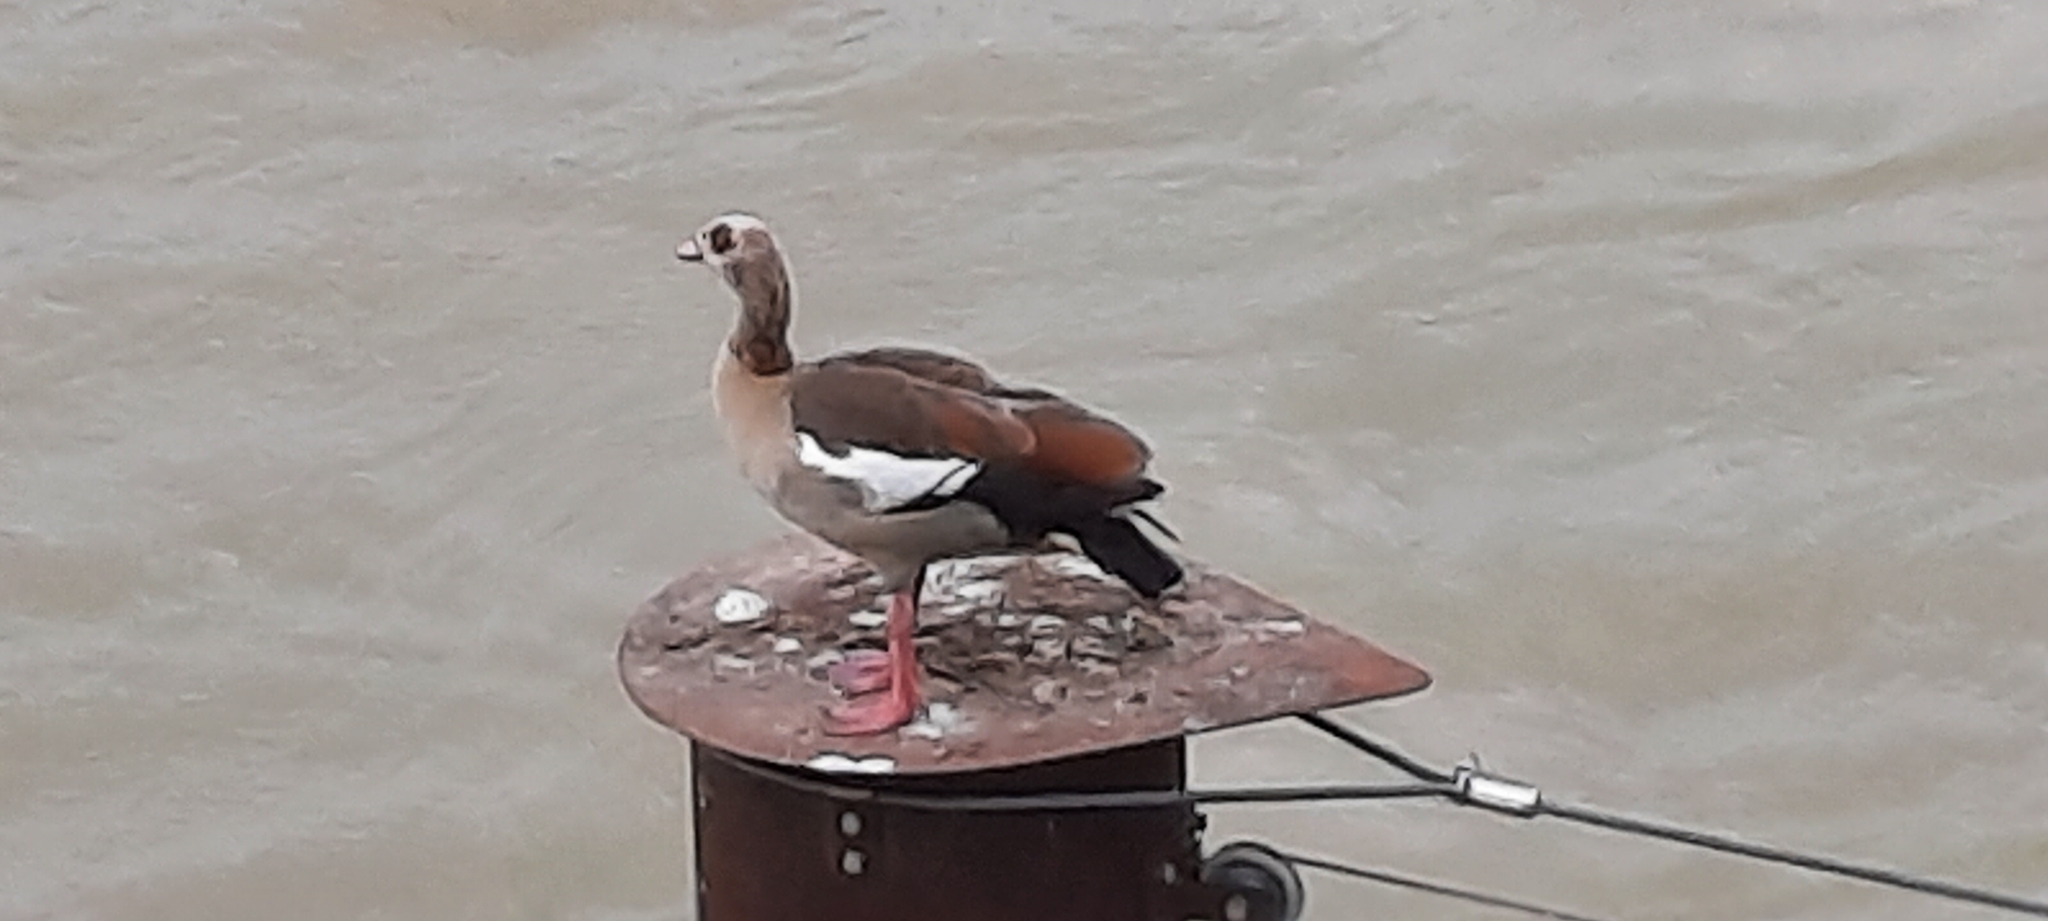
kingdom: Animalia
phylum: Chordata
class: Aves
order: Anseriformes
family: Anatidae
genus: Alopochen
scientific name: Alopochen aegyptiaca
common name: Egyptian goose
